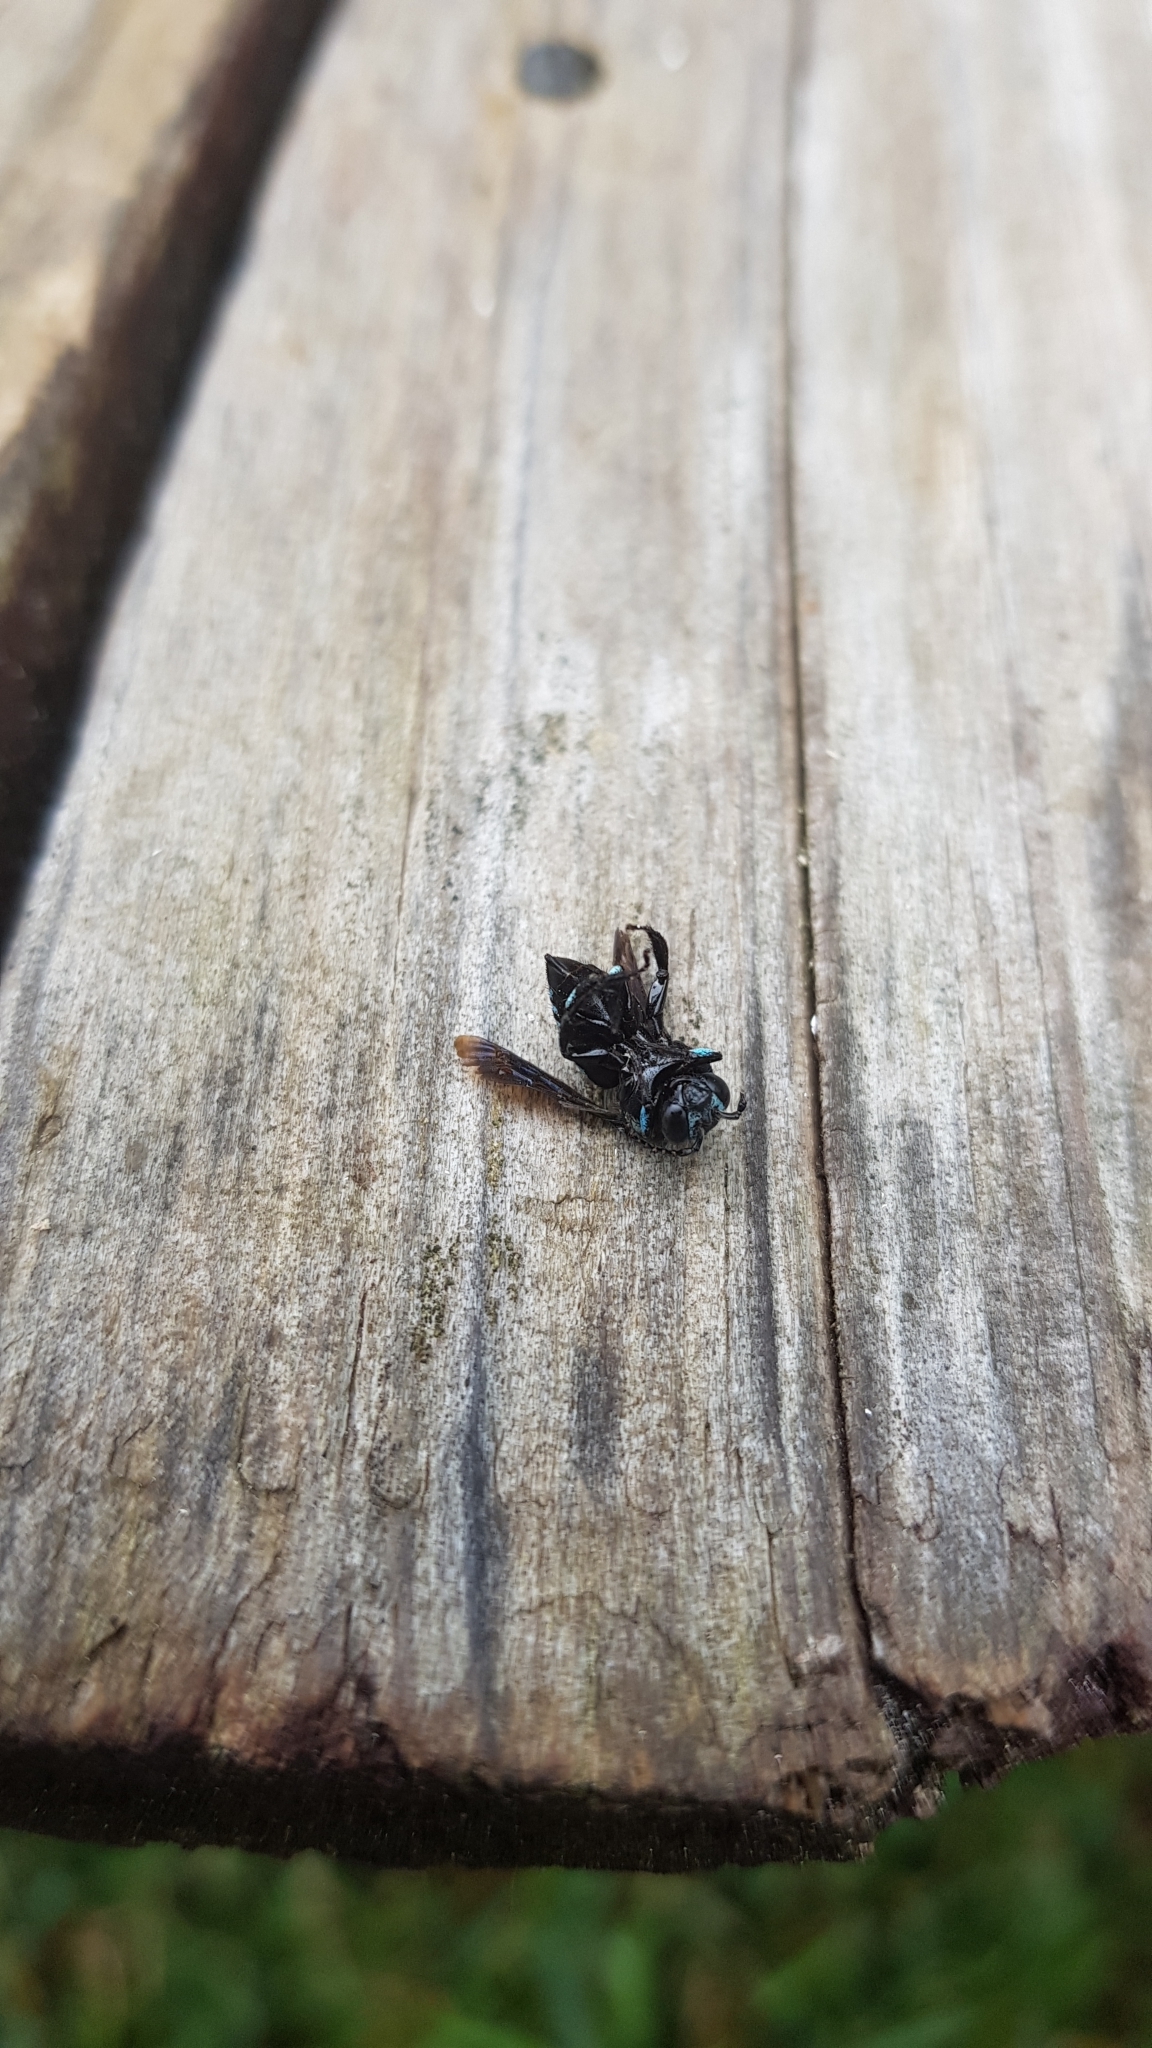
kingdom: Animalia
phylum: Arthropoda
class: Insecta
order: Hymenoptera
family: Apidae
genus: Thyreus
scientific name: Thyreus nitidulus
